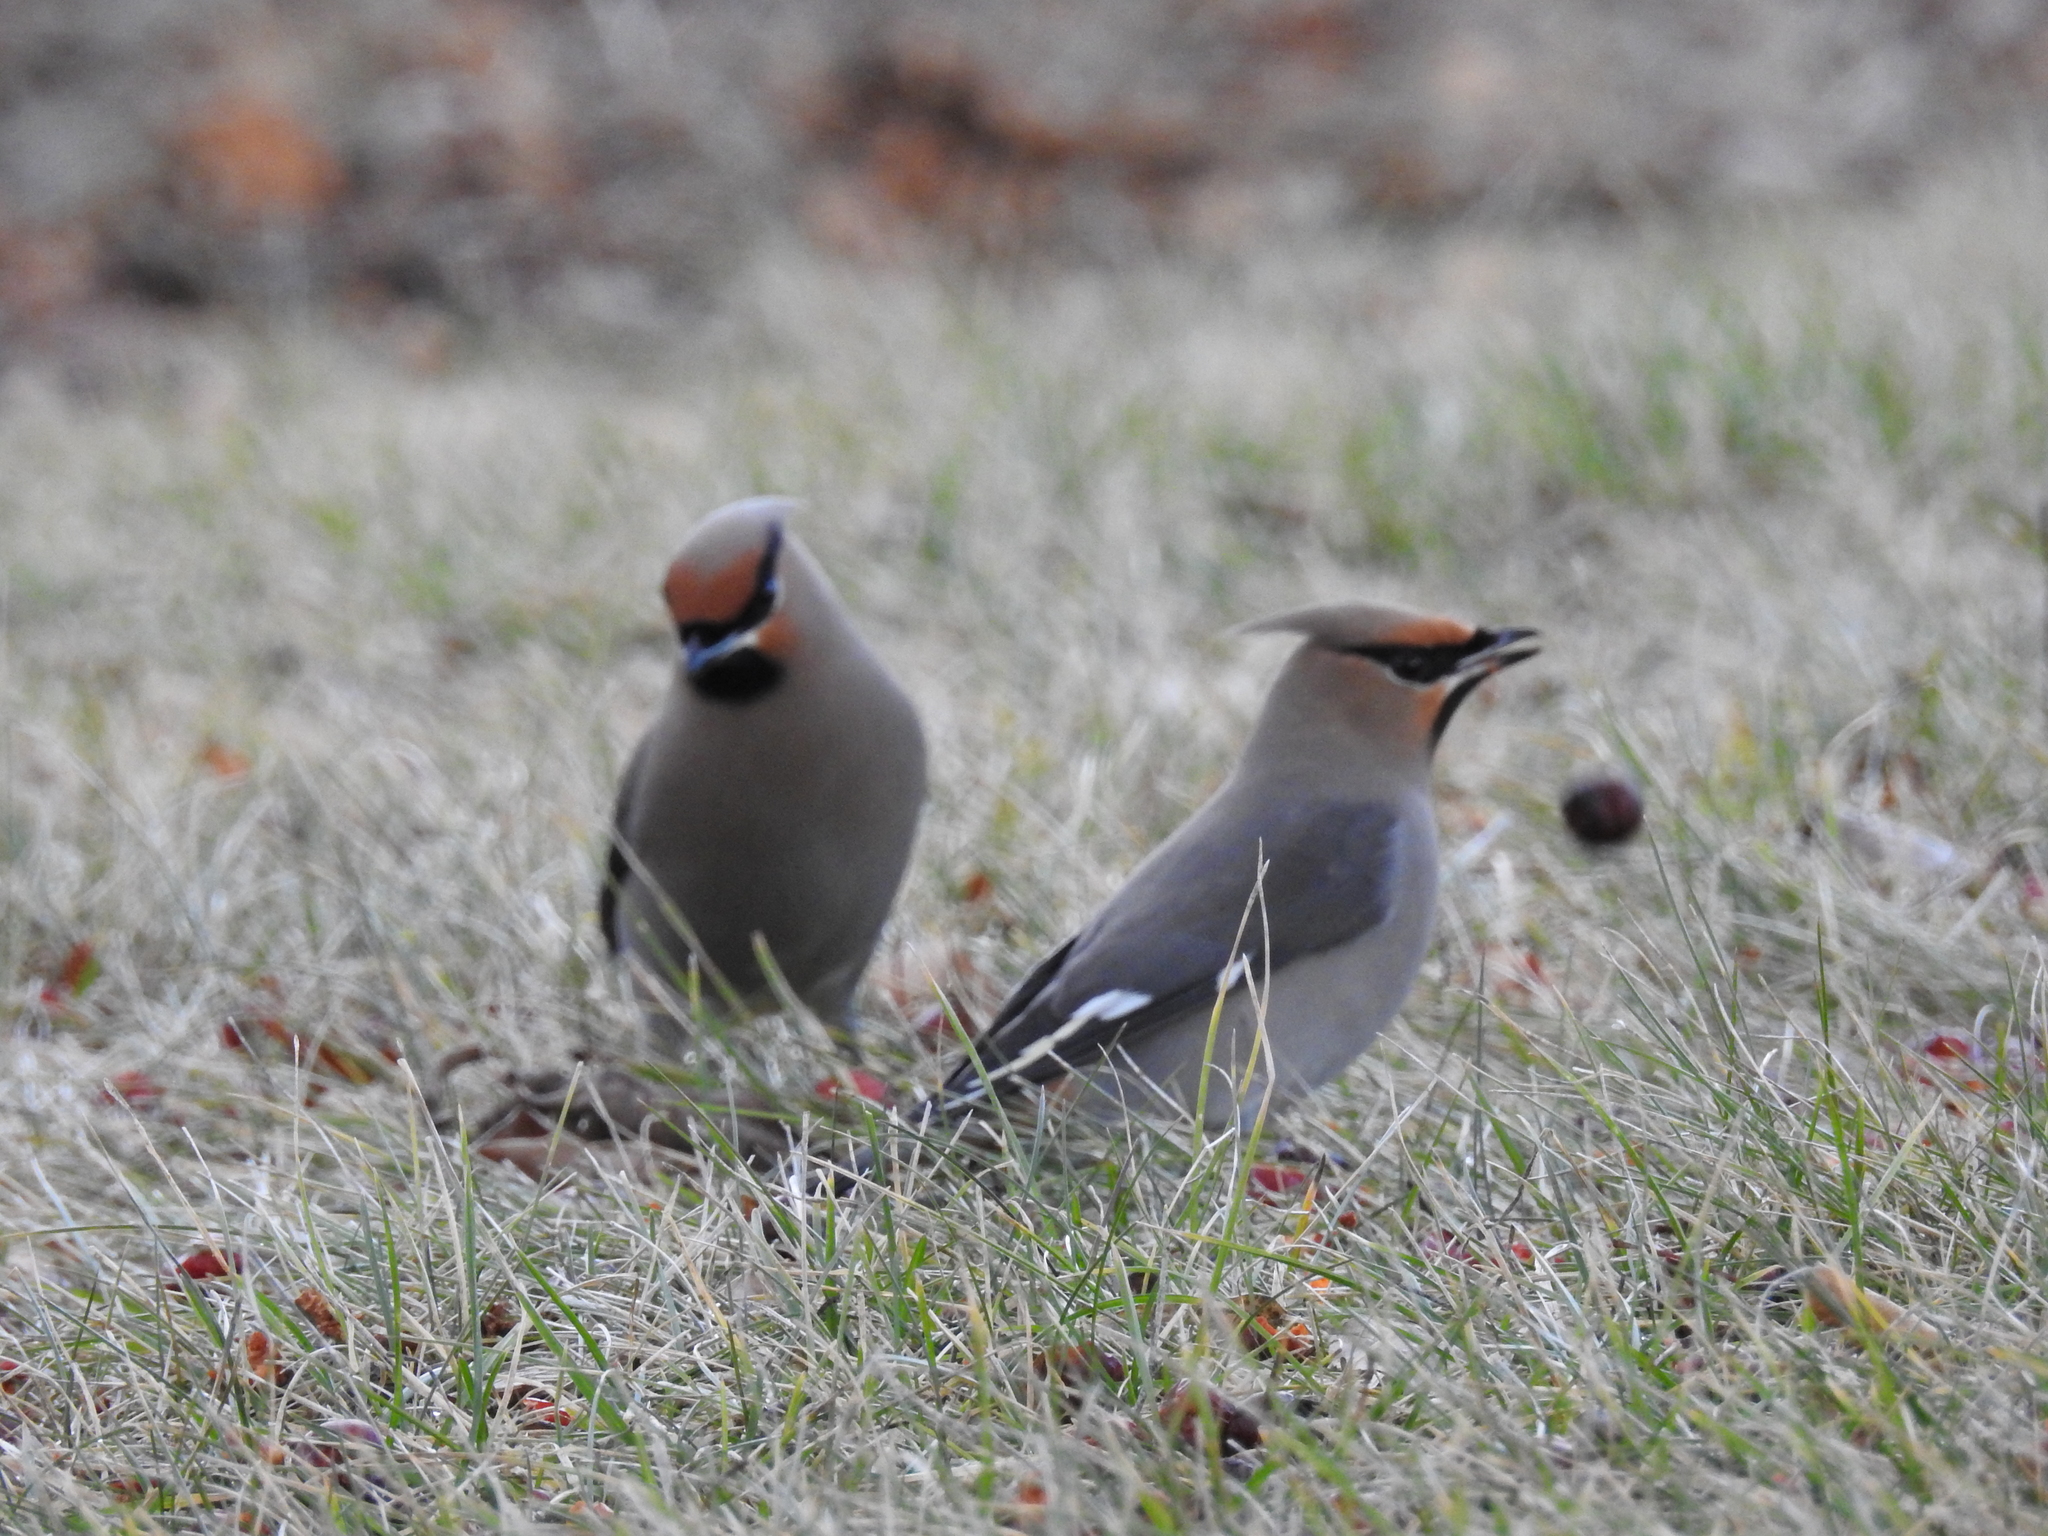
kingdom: Animalia
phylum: Chordata
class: Aves
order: Passeriformes
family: Bombycillidae
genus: Bombycilla
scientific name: Bombycilla garrulus
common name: Bohemian waxwing
